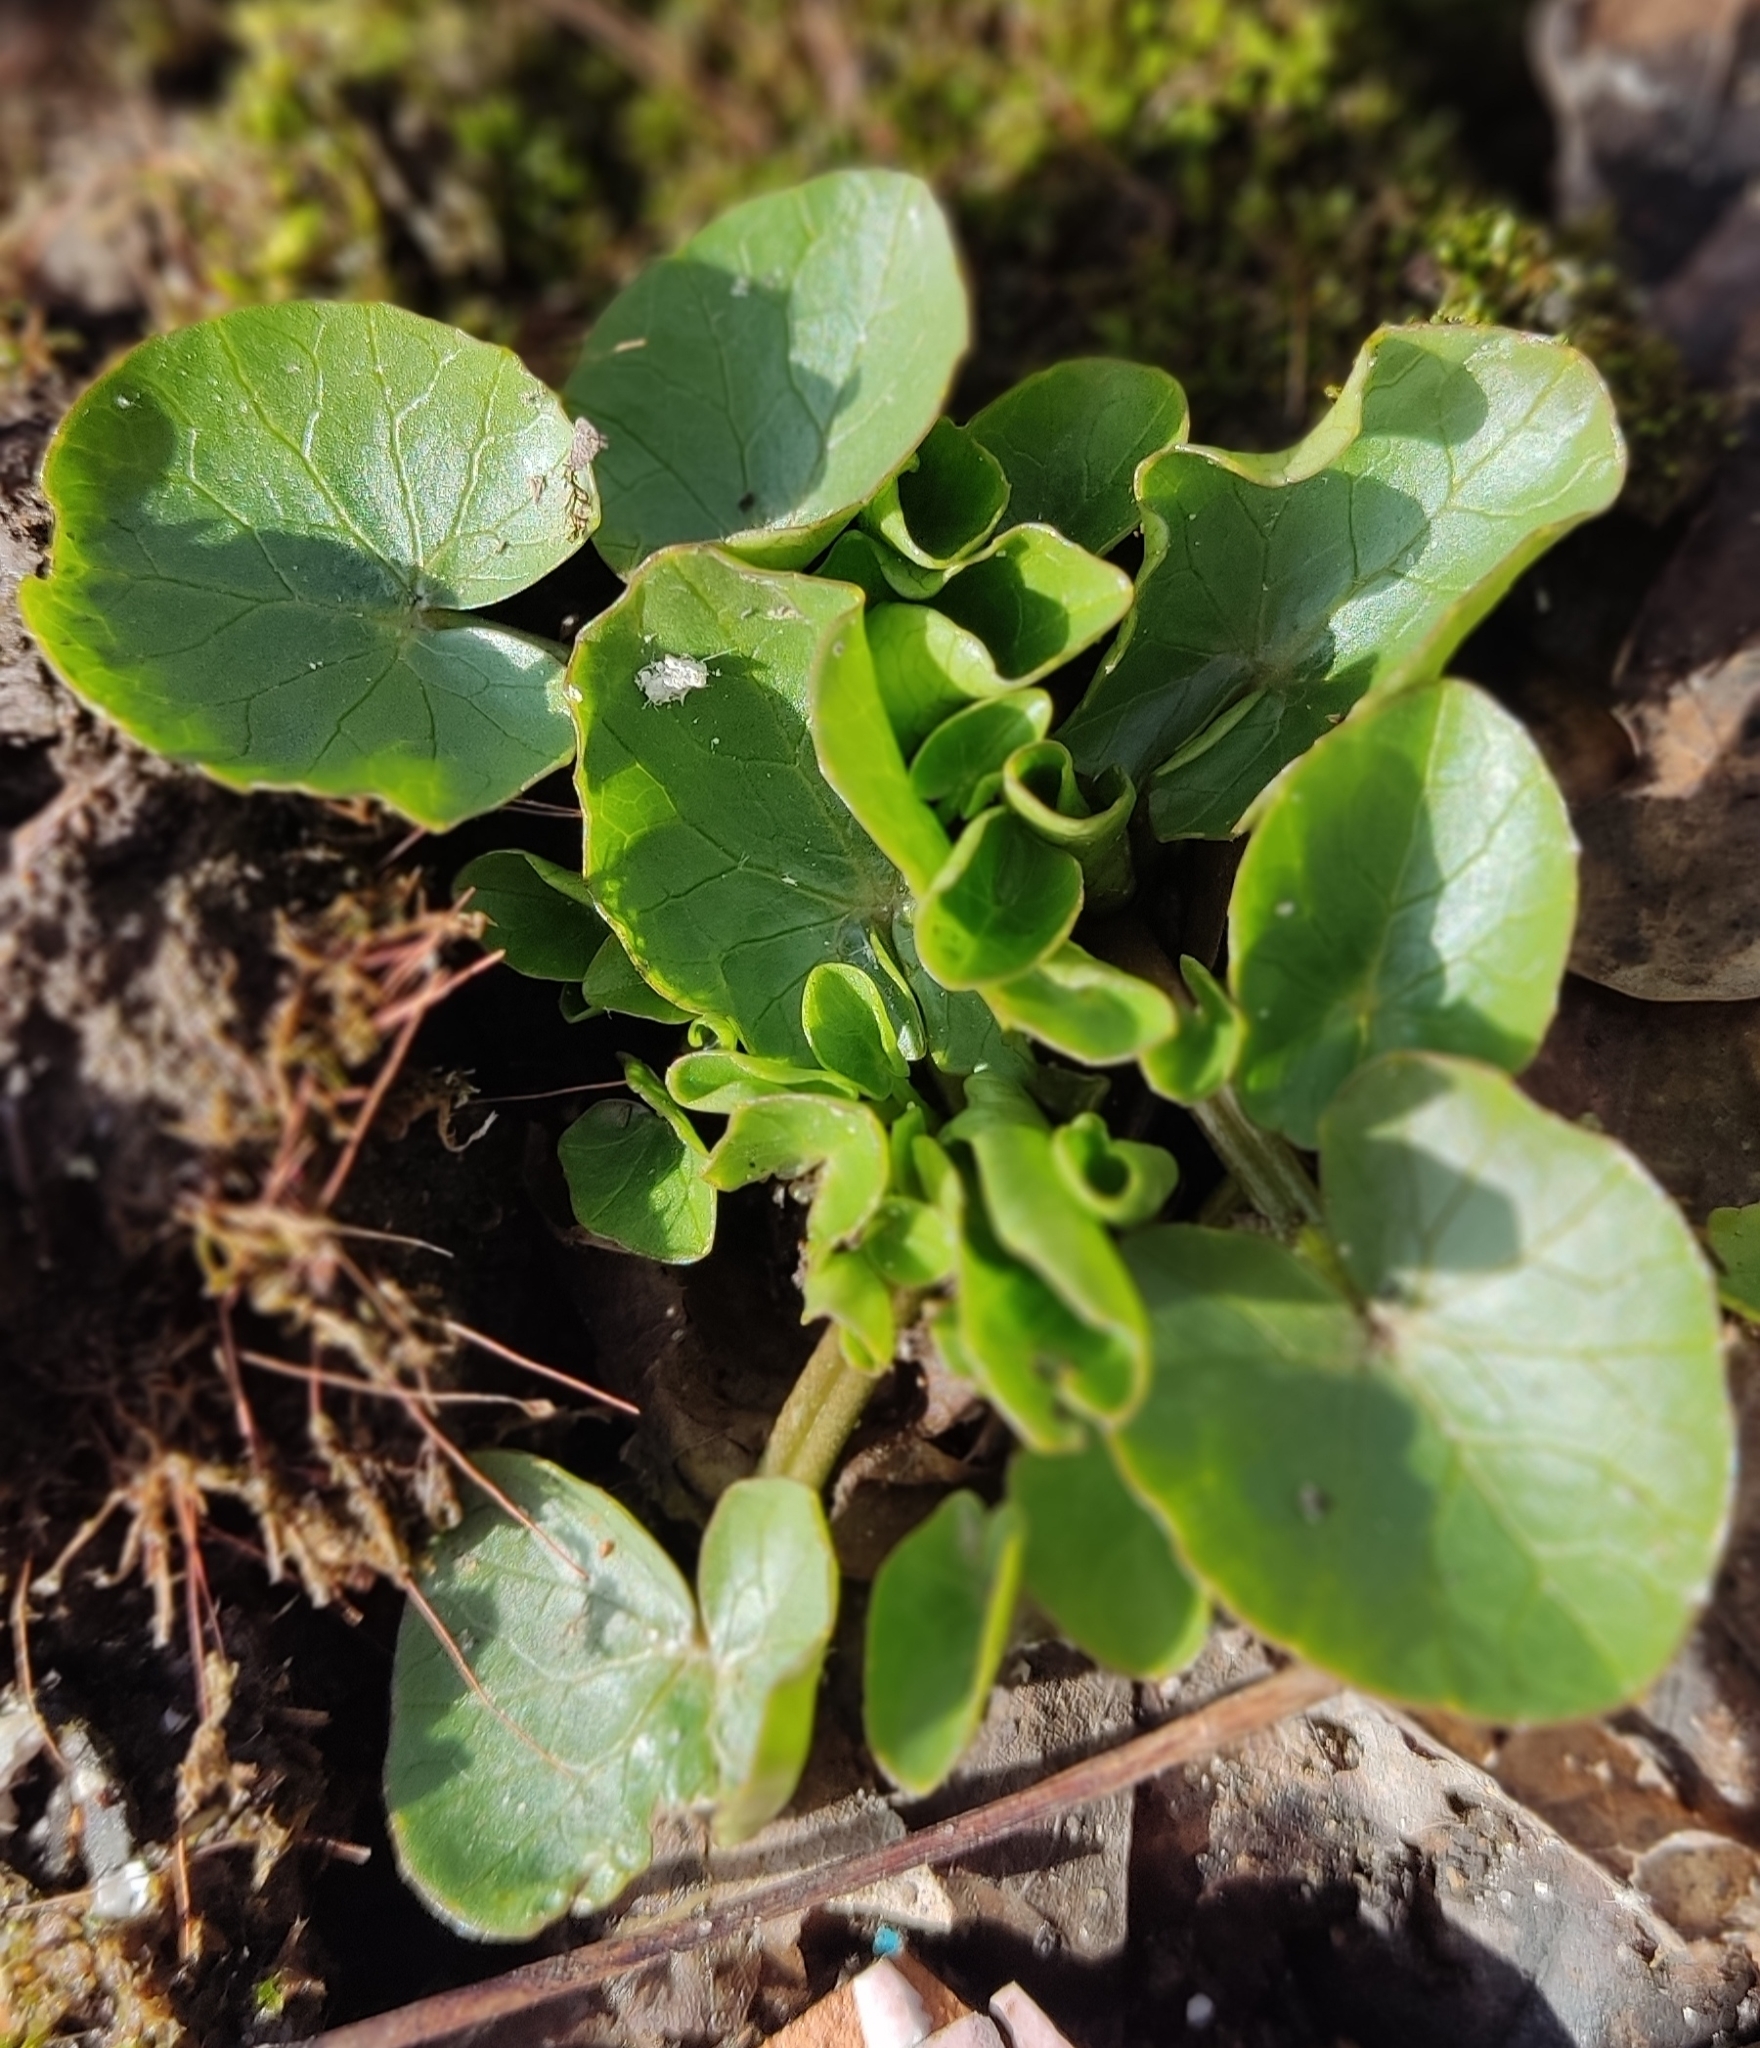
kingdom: Plantae
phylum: Tracheophyta
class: Magnoliopsida
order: Ranunculales
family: Ranunculaceae
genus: Ficaria
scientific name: Ficaria verna
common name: Lesser celandine
